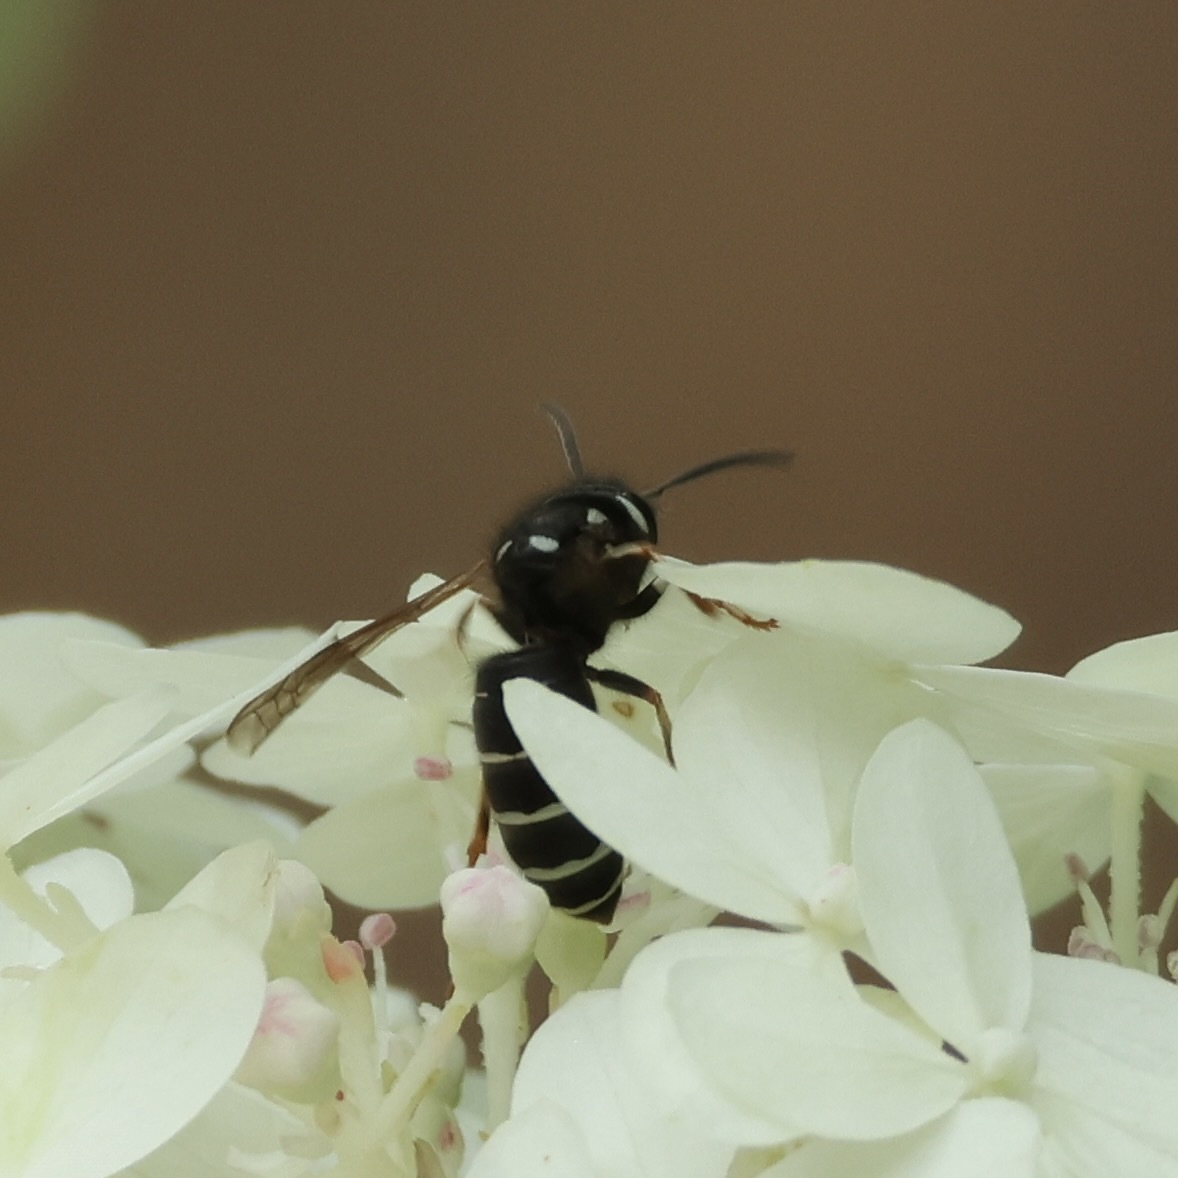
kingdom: Animalia
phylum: Arthropoda
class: Insecta
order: Hymenoptera
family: Vespidae
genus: Vespula
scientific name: Vespula consobrina
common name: Blackjacket
